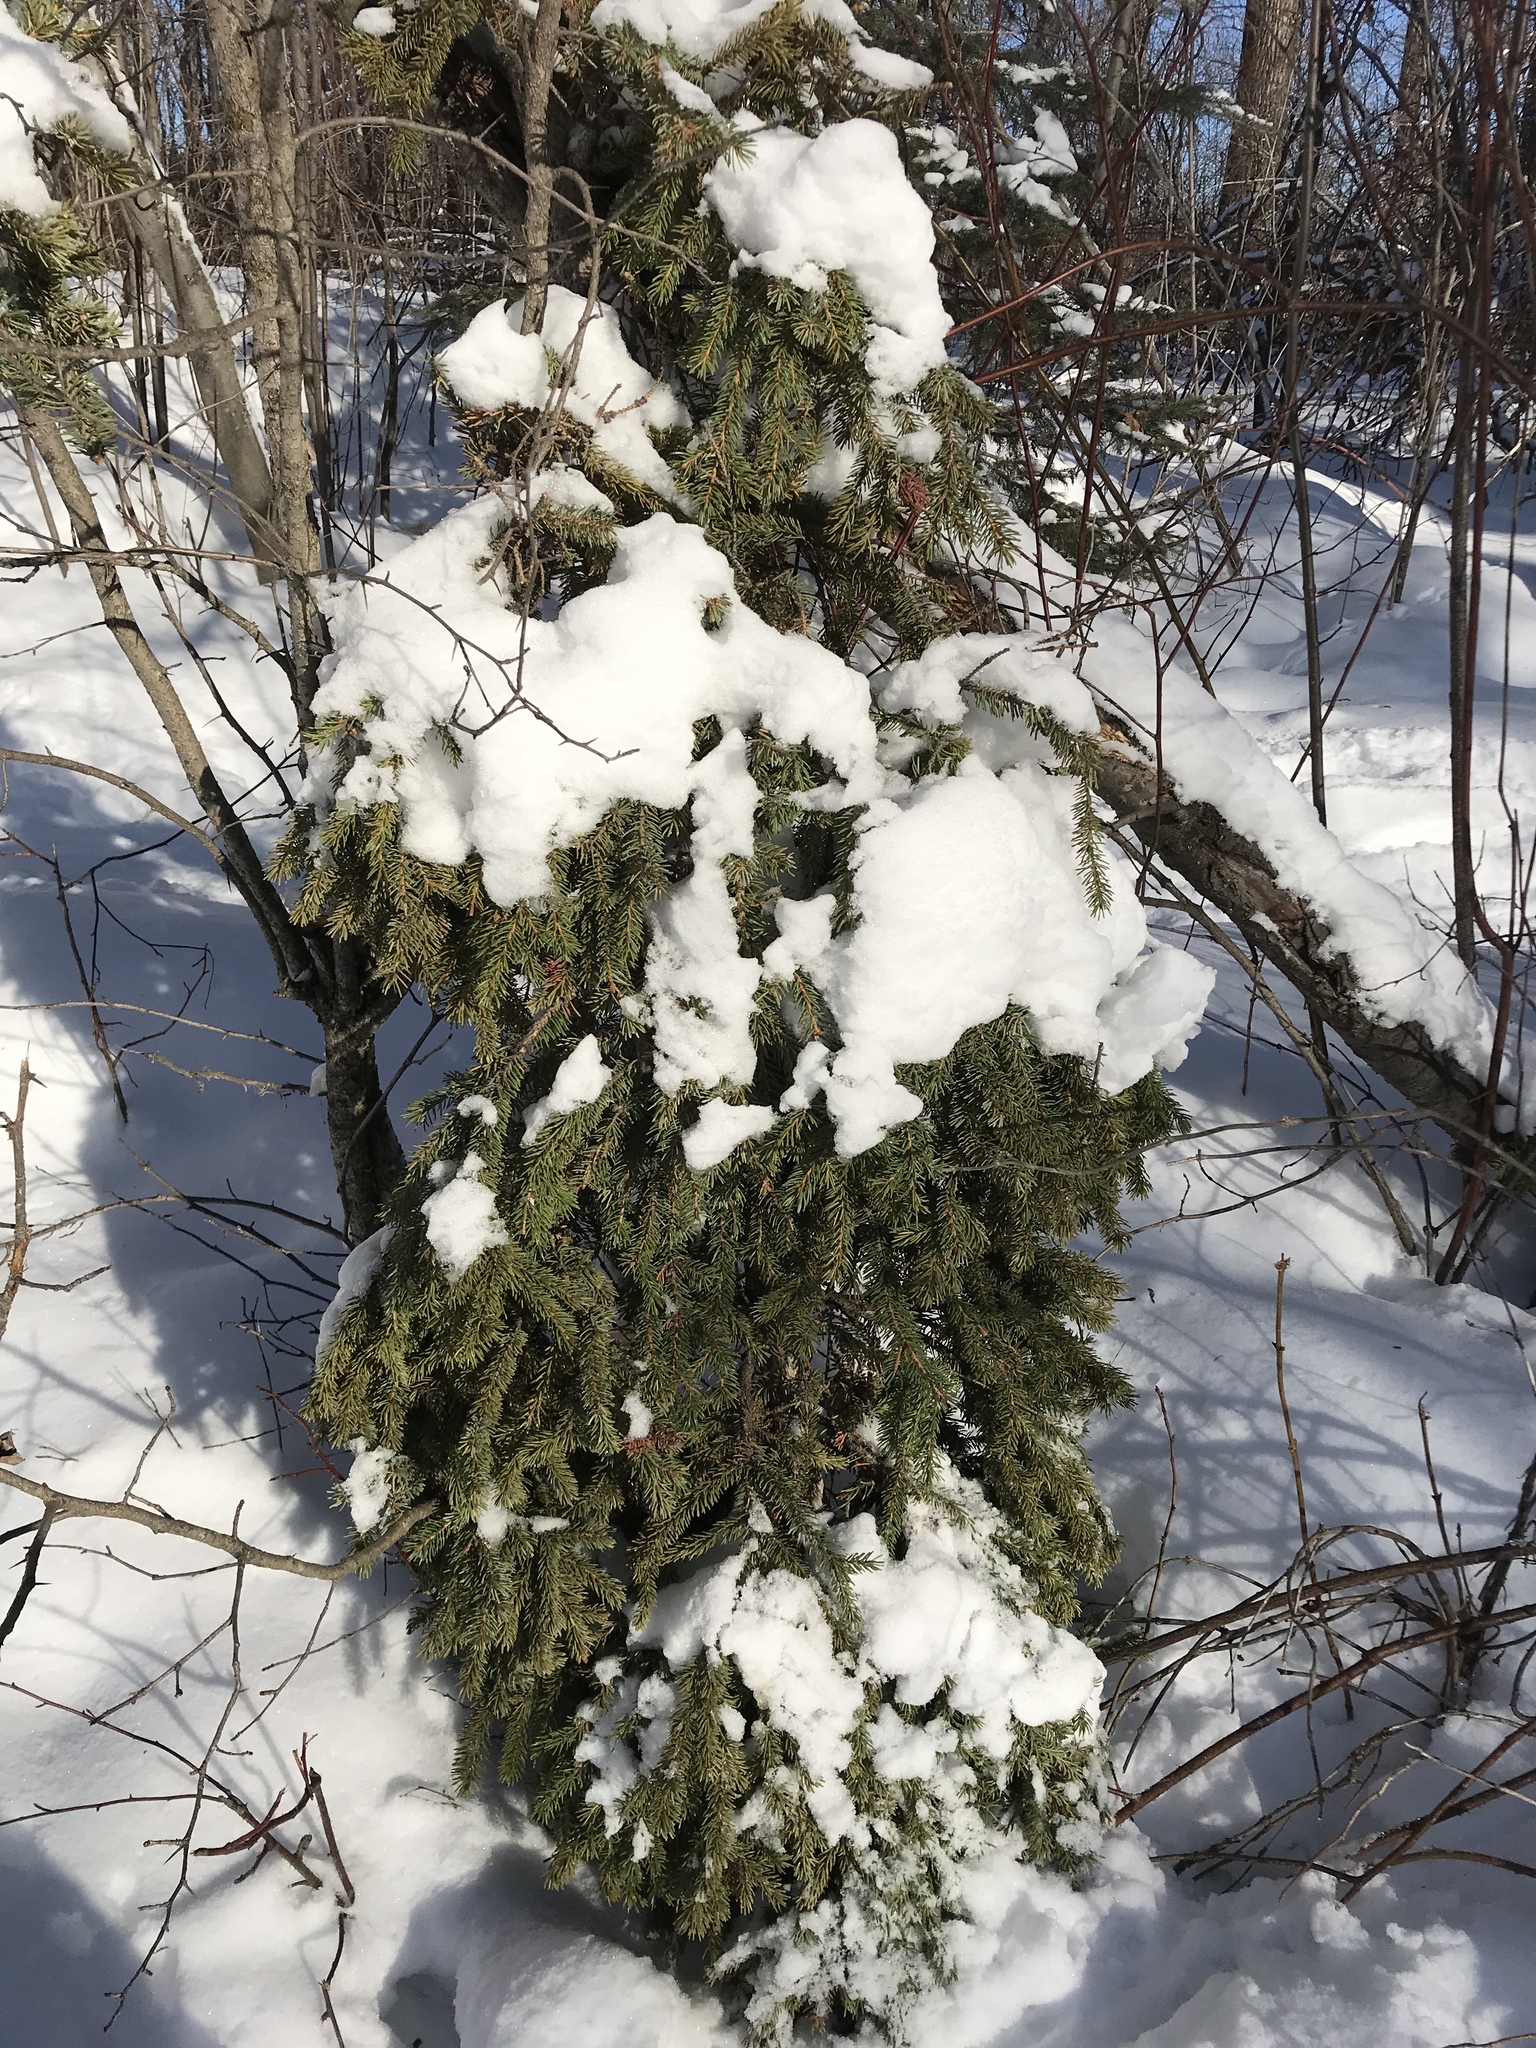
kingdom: Plantae
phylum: Tracheophyta
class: Pinopsida
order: Pinales
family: Pinaceae
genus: Picea
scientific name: Picea mariana
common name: Black spruce
